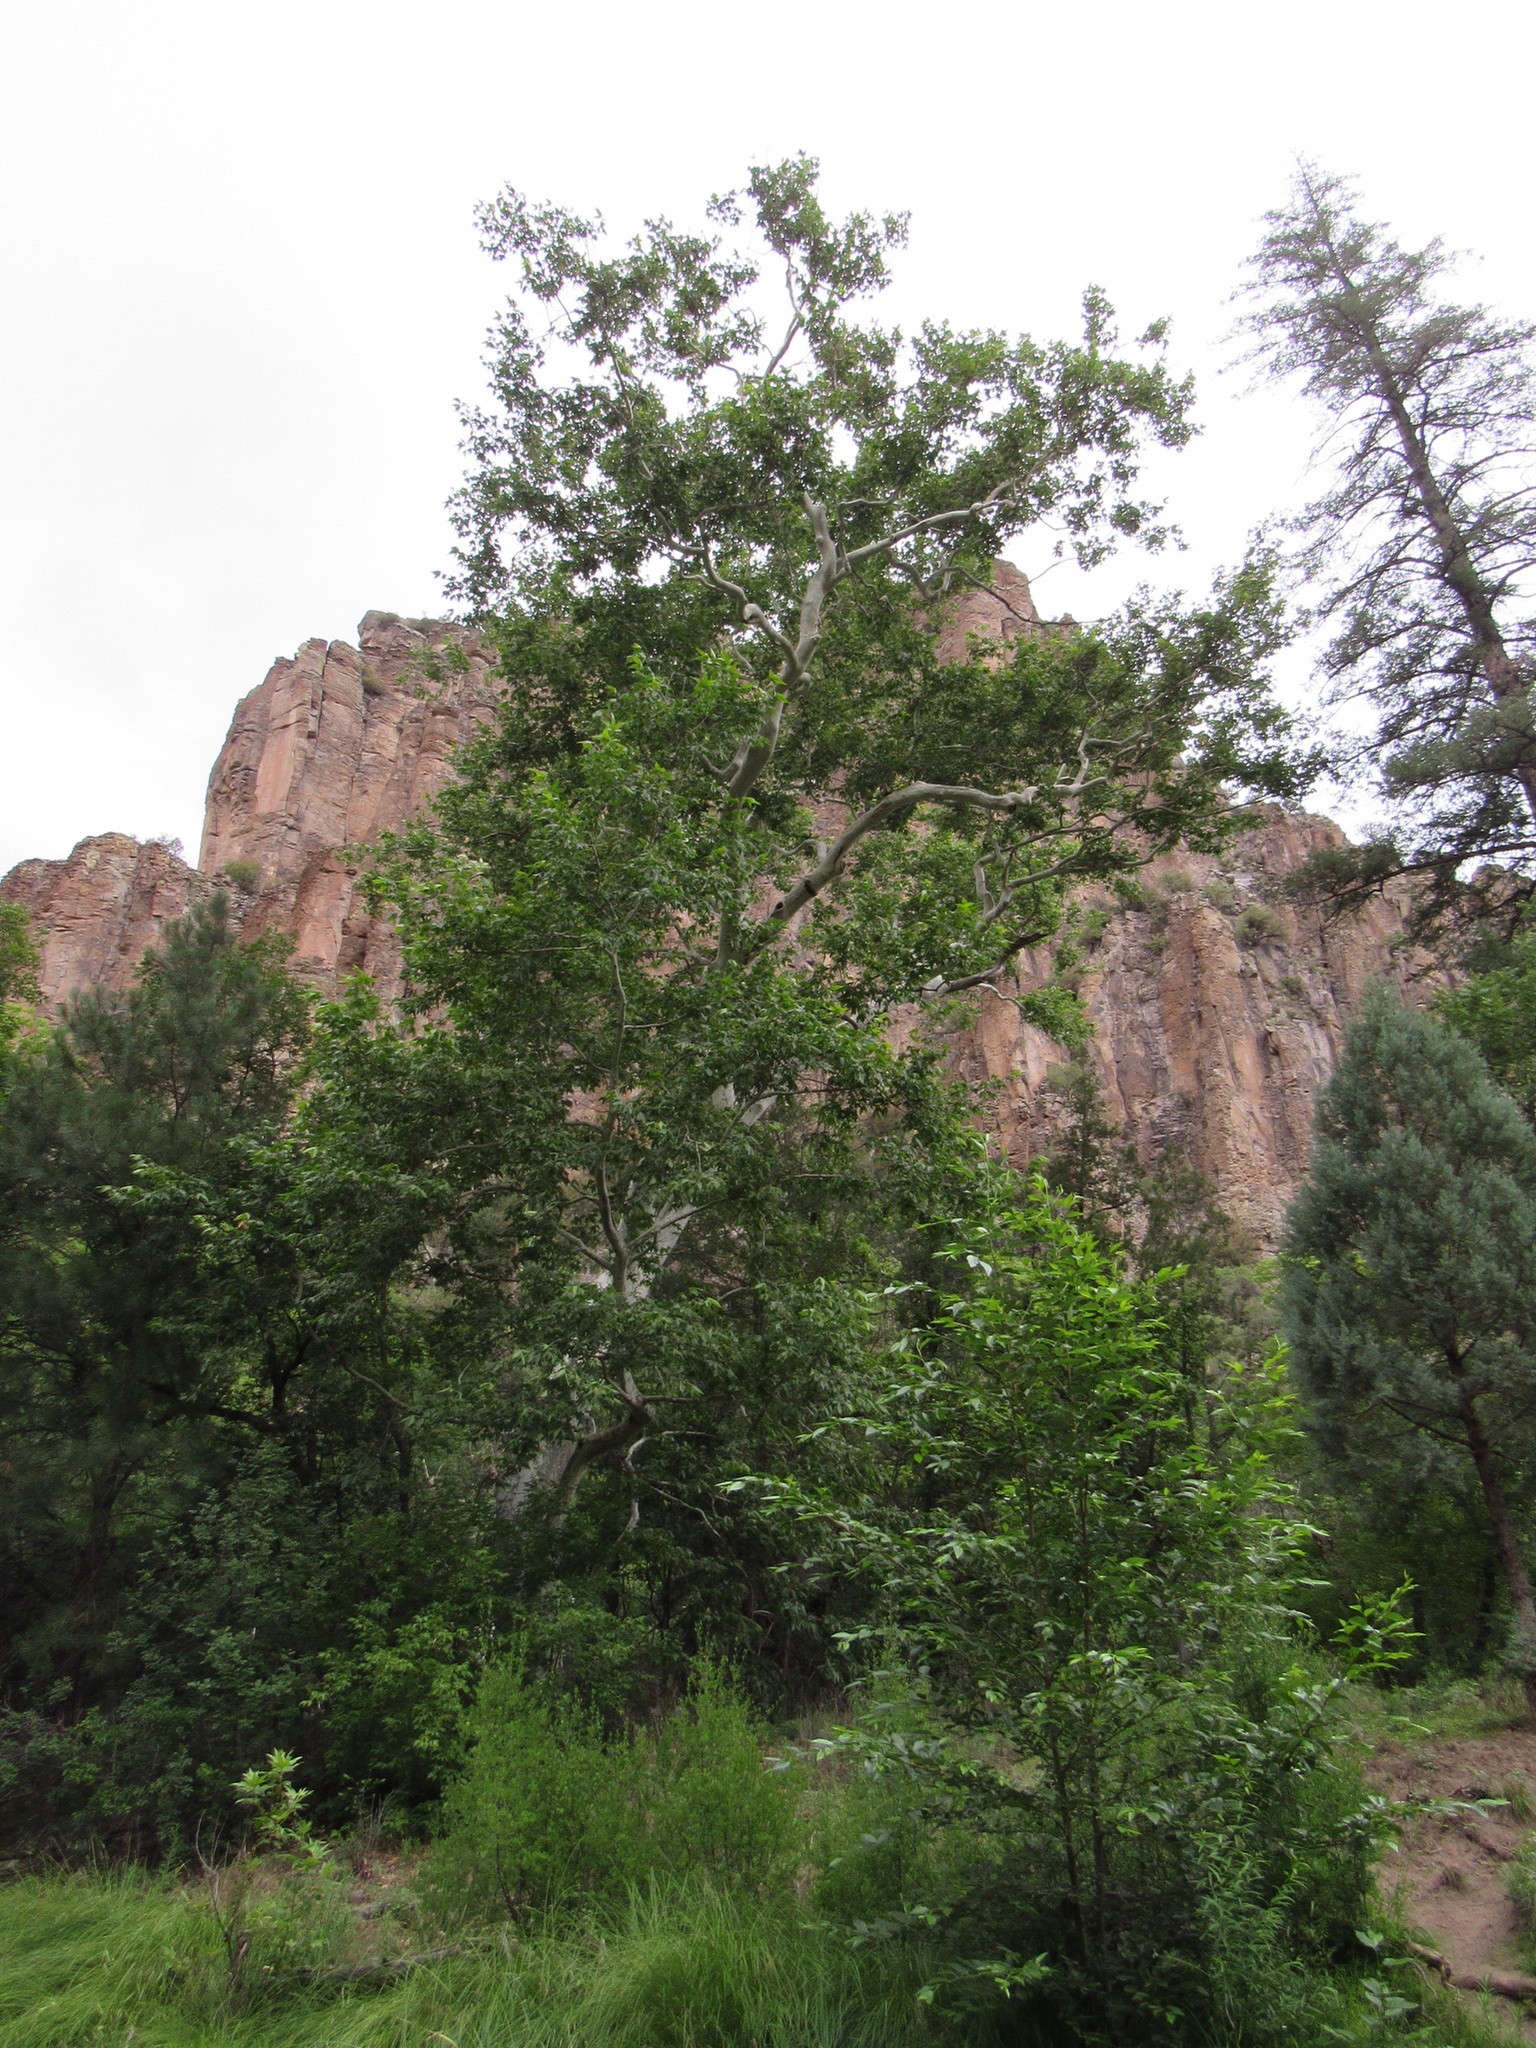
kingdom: Plantae
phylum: Tracheophyta
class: Magnoliopsida
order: Proteales
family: Platanaceae
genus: Platanus
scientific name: Platanus wrightii
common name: Arizona sycamore
